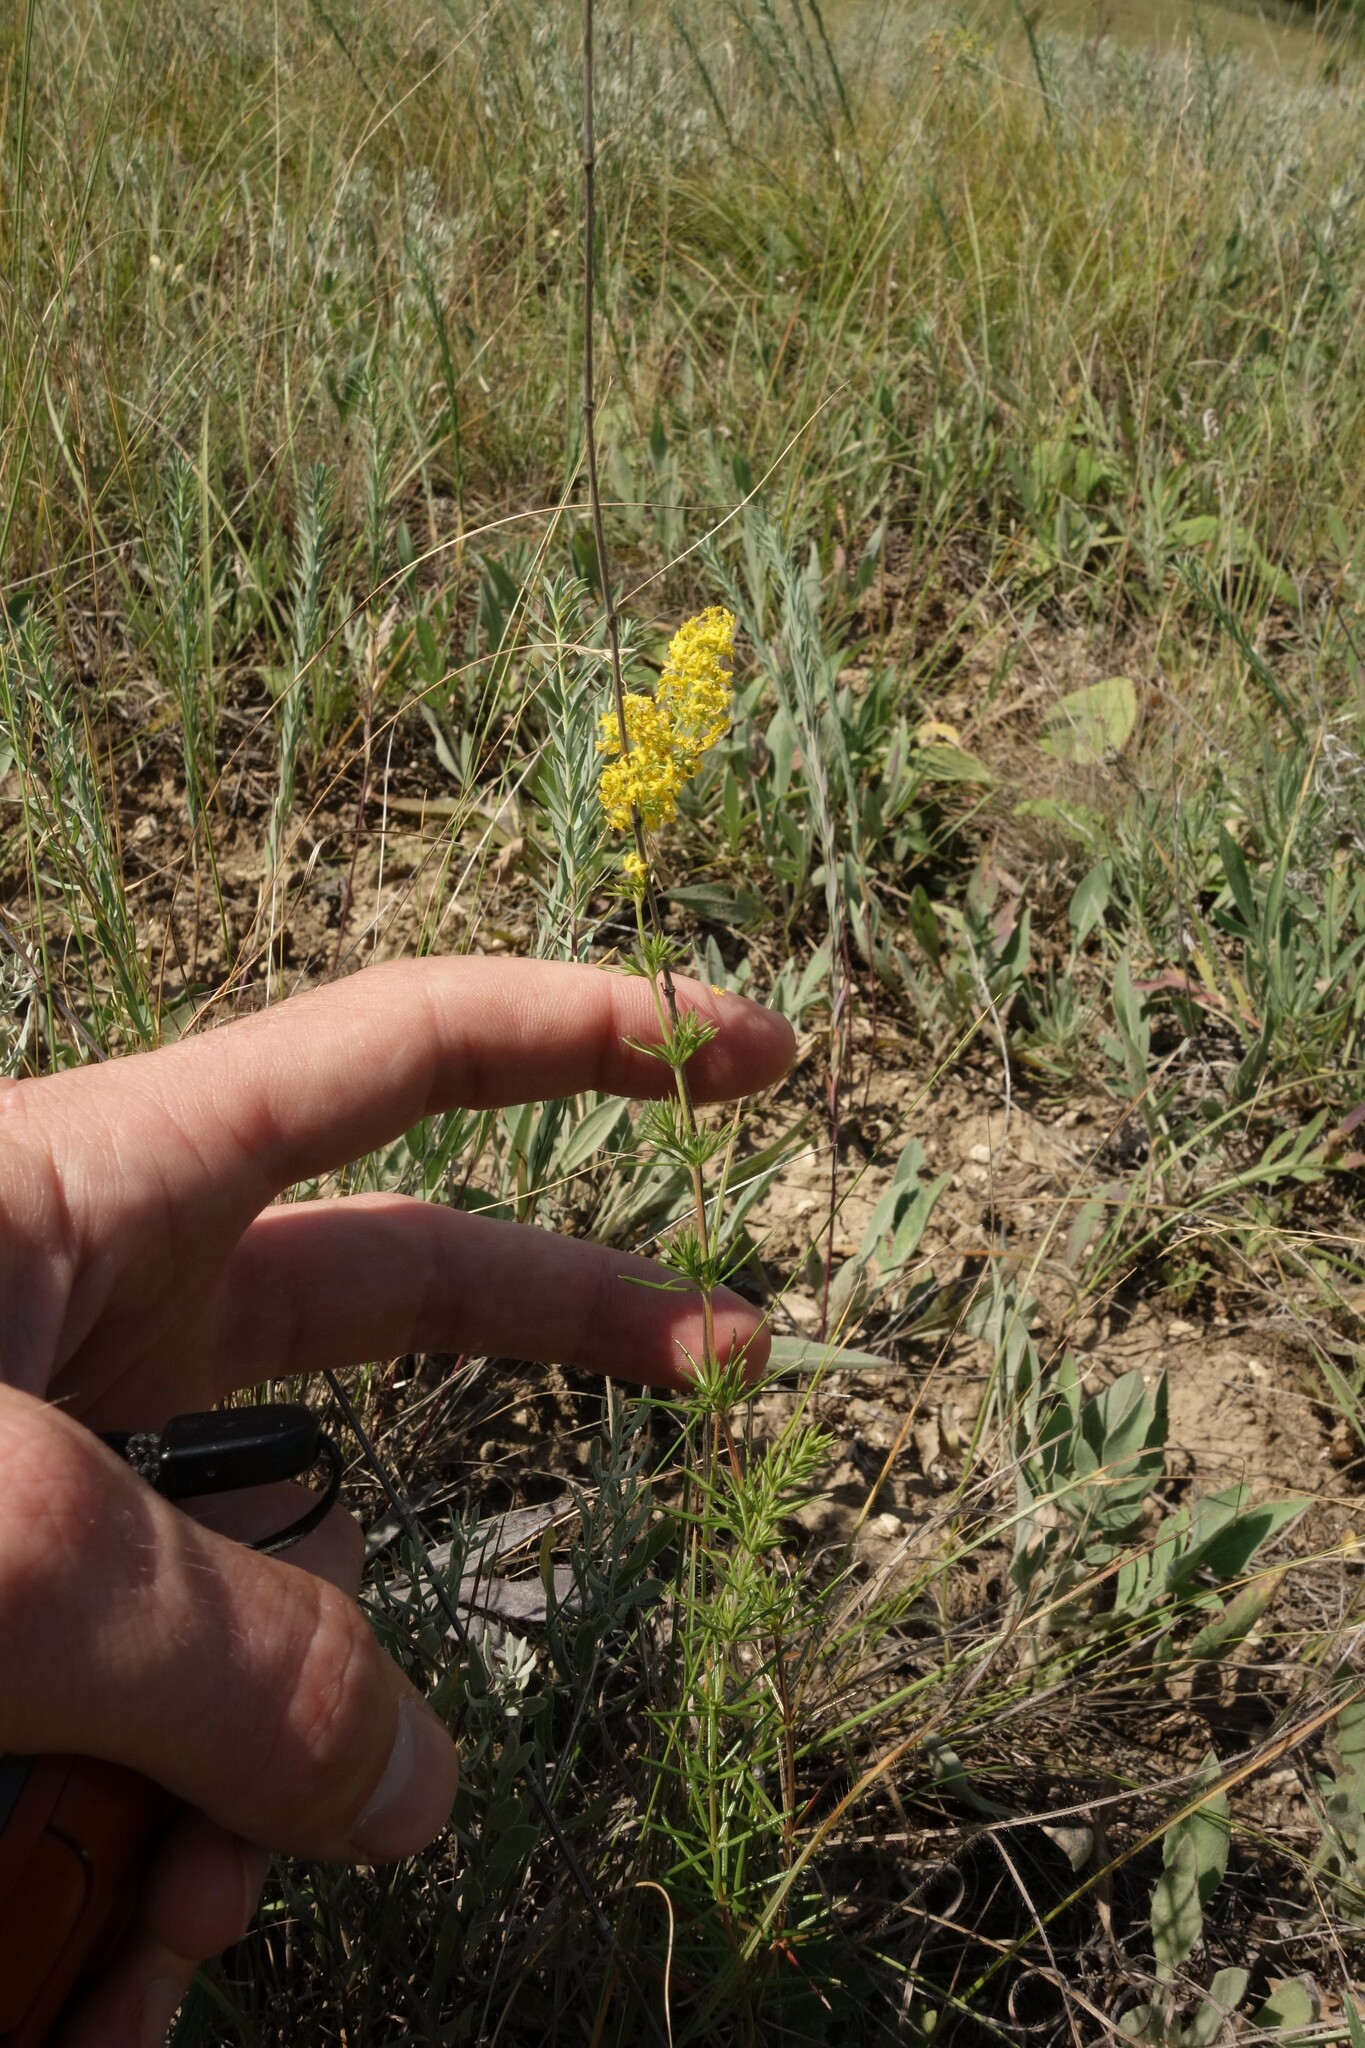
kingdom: Plantae
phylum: Tracheophyta
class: Magnoliopsida
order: Gentianales
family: Rubiaceae
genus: Galium
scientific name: Galium verum
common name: Lady's bedstraw
